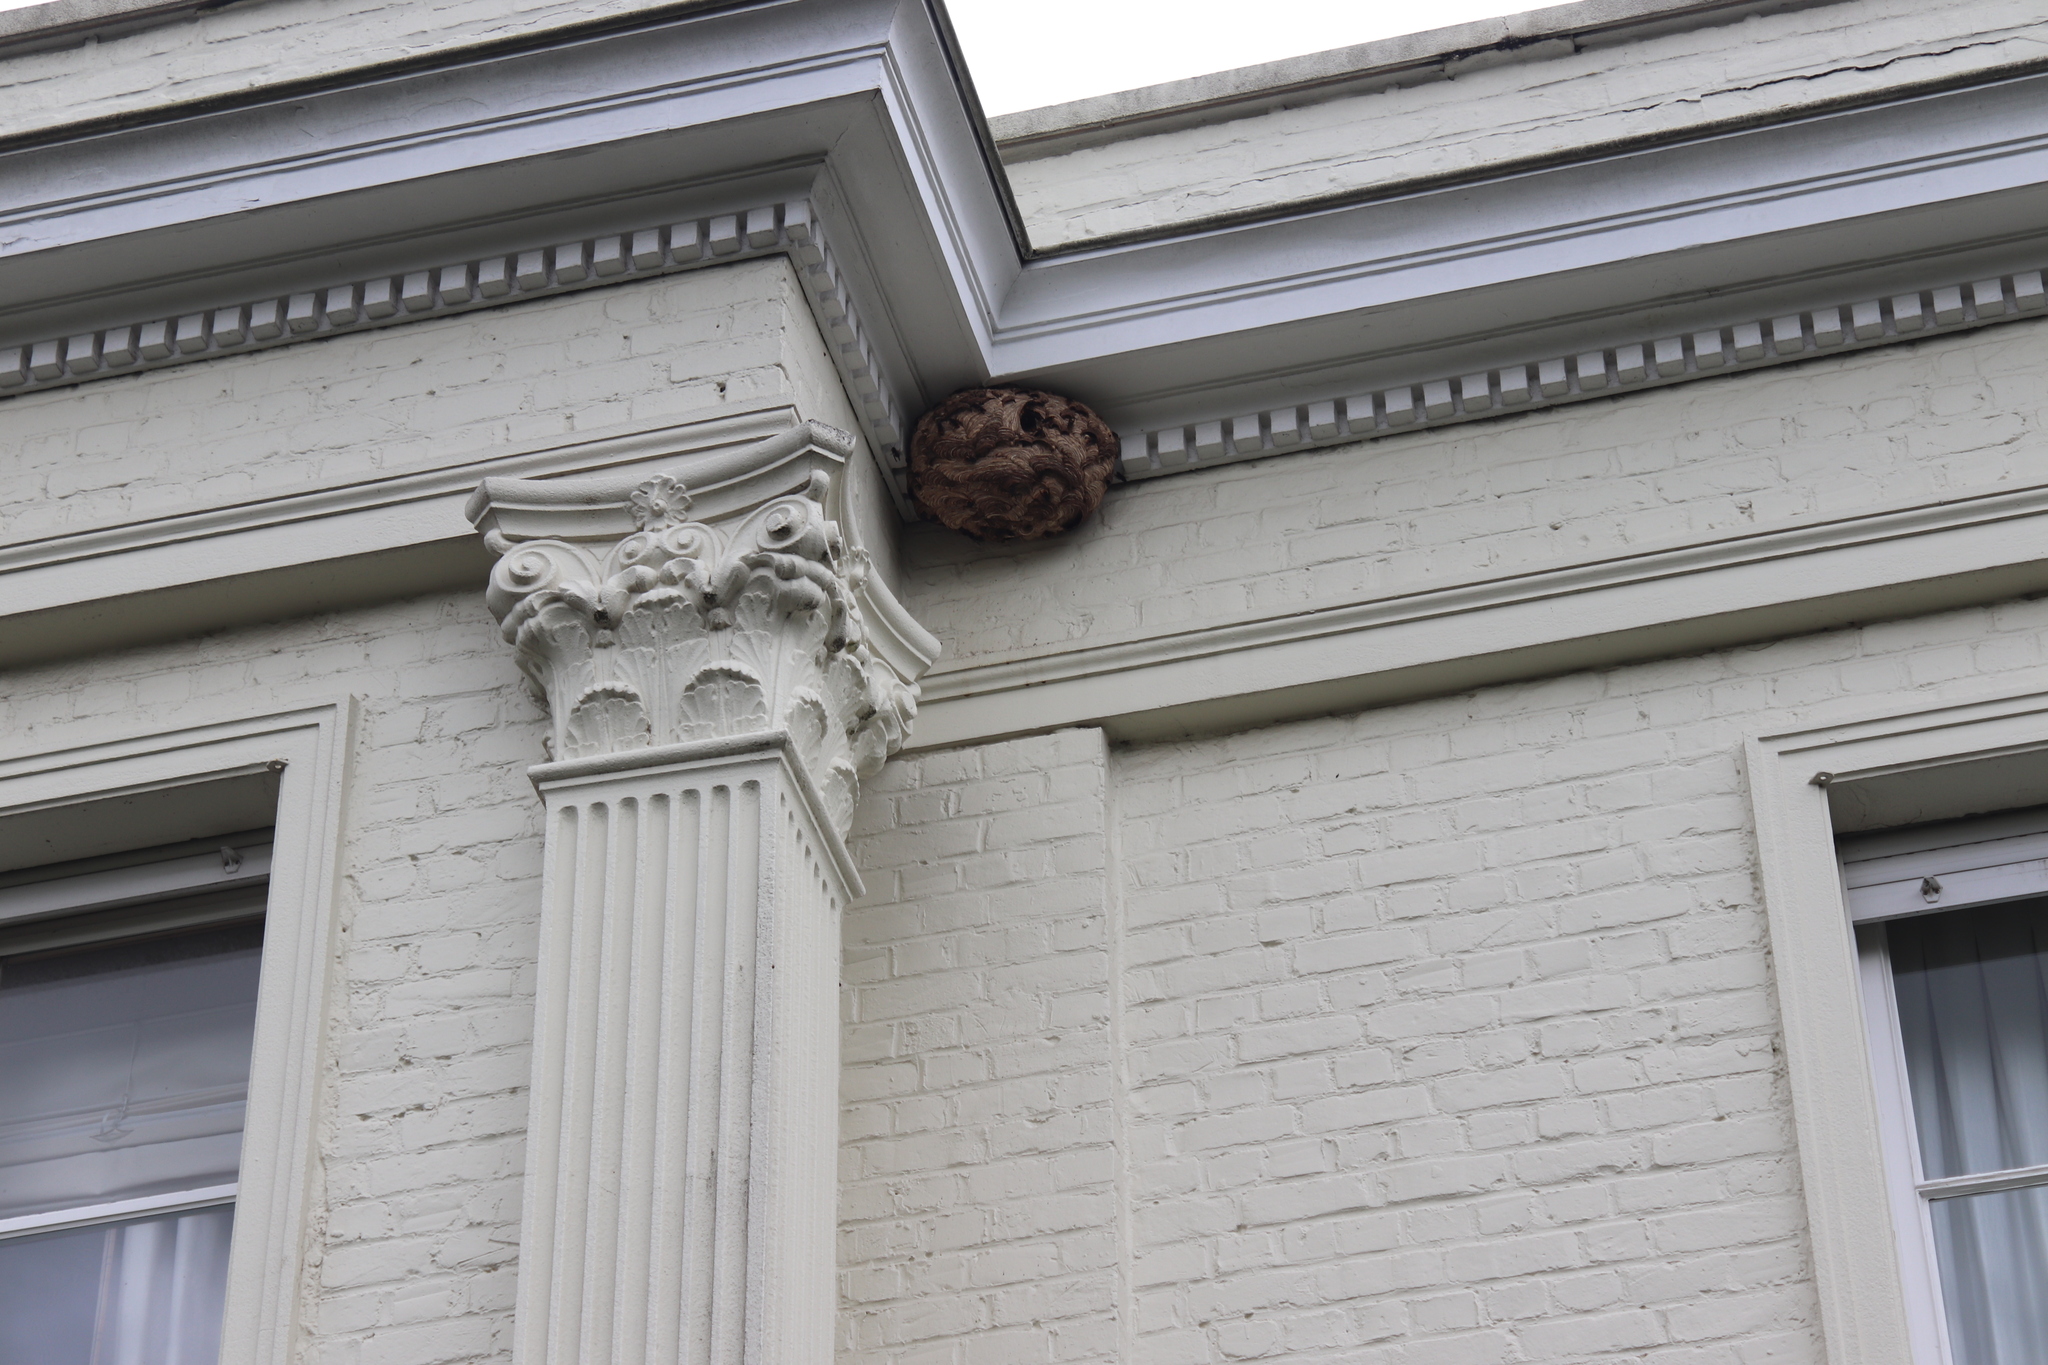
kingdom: Animalia
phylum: Arthropoda
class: Insecta
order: Hymenoptera
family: Vespidae
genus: Vespa
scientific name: Vespa velutina
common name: Asian hornet
